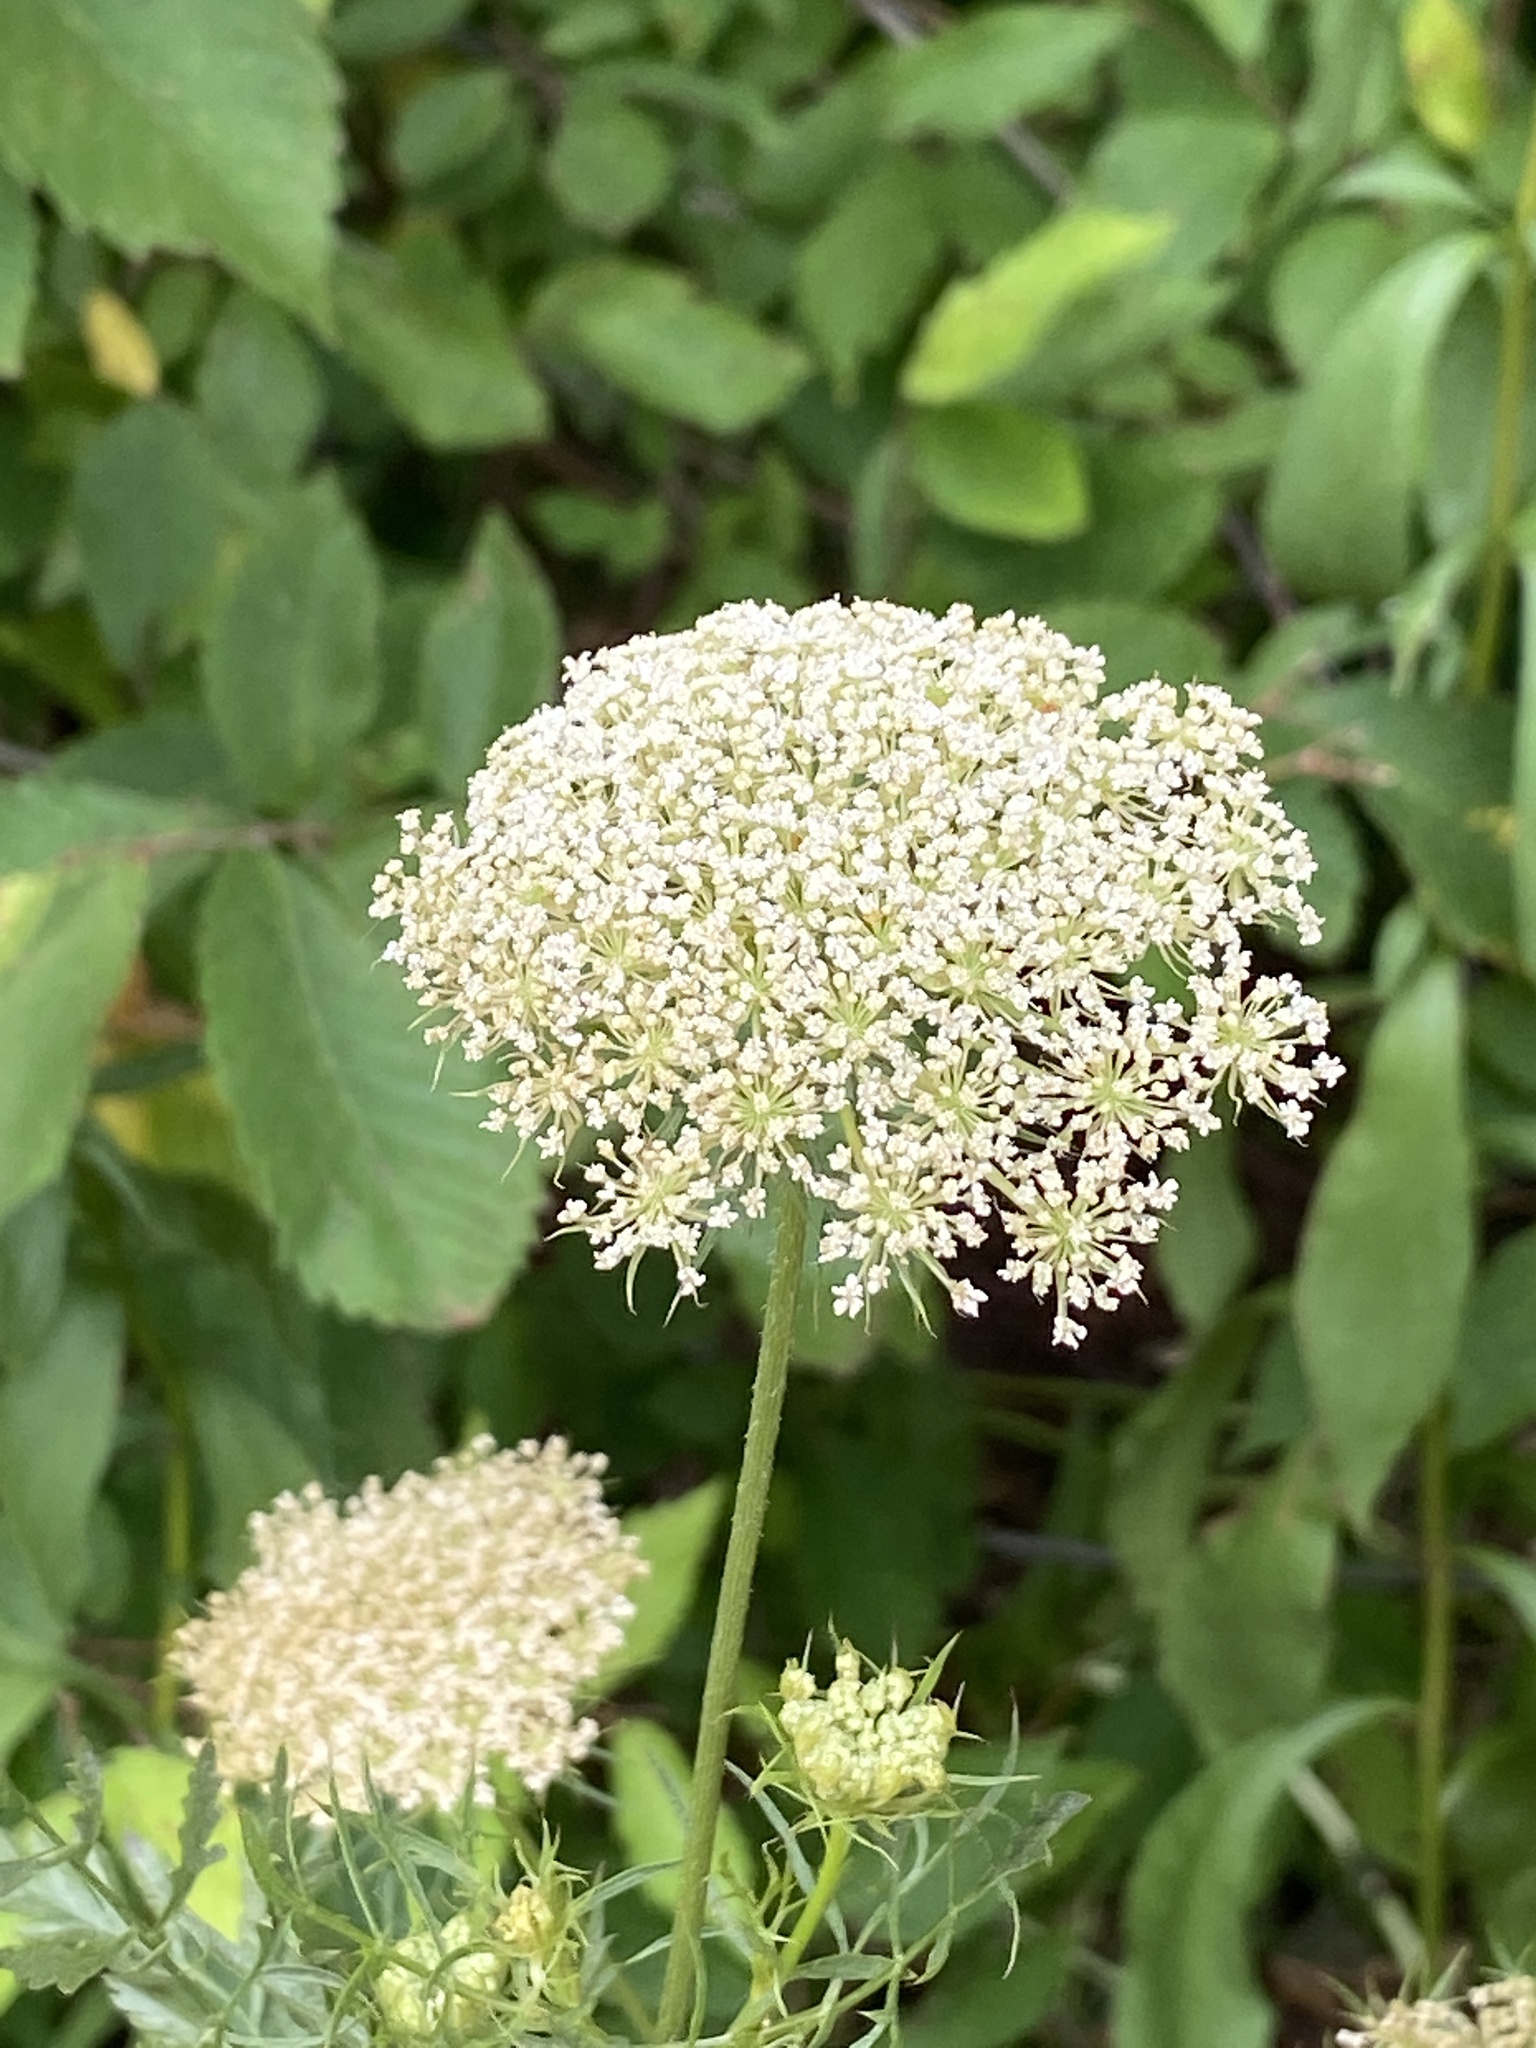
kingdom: Plantae
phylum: Tracheophyta
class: Magnoliopsida
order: Apiales
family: Apiaceae
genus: Daucus
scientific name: Daucus carota
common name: Wild carrot
